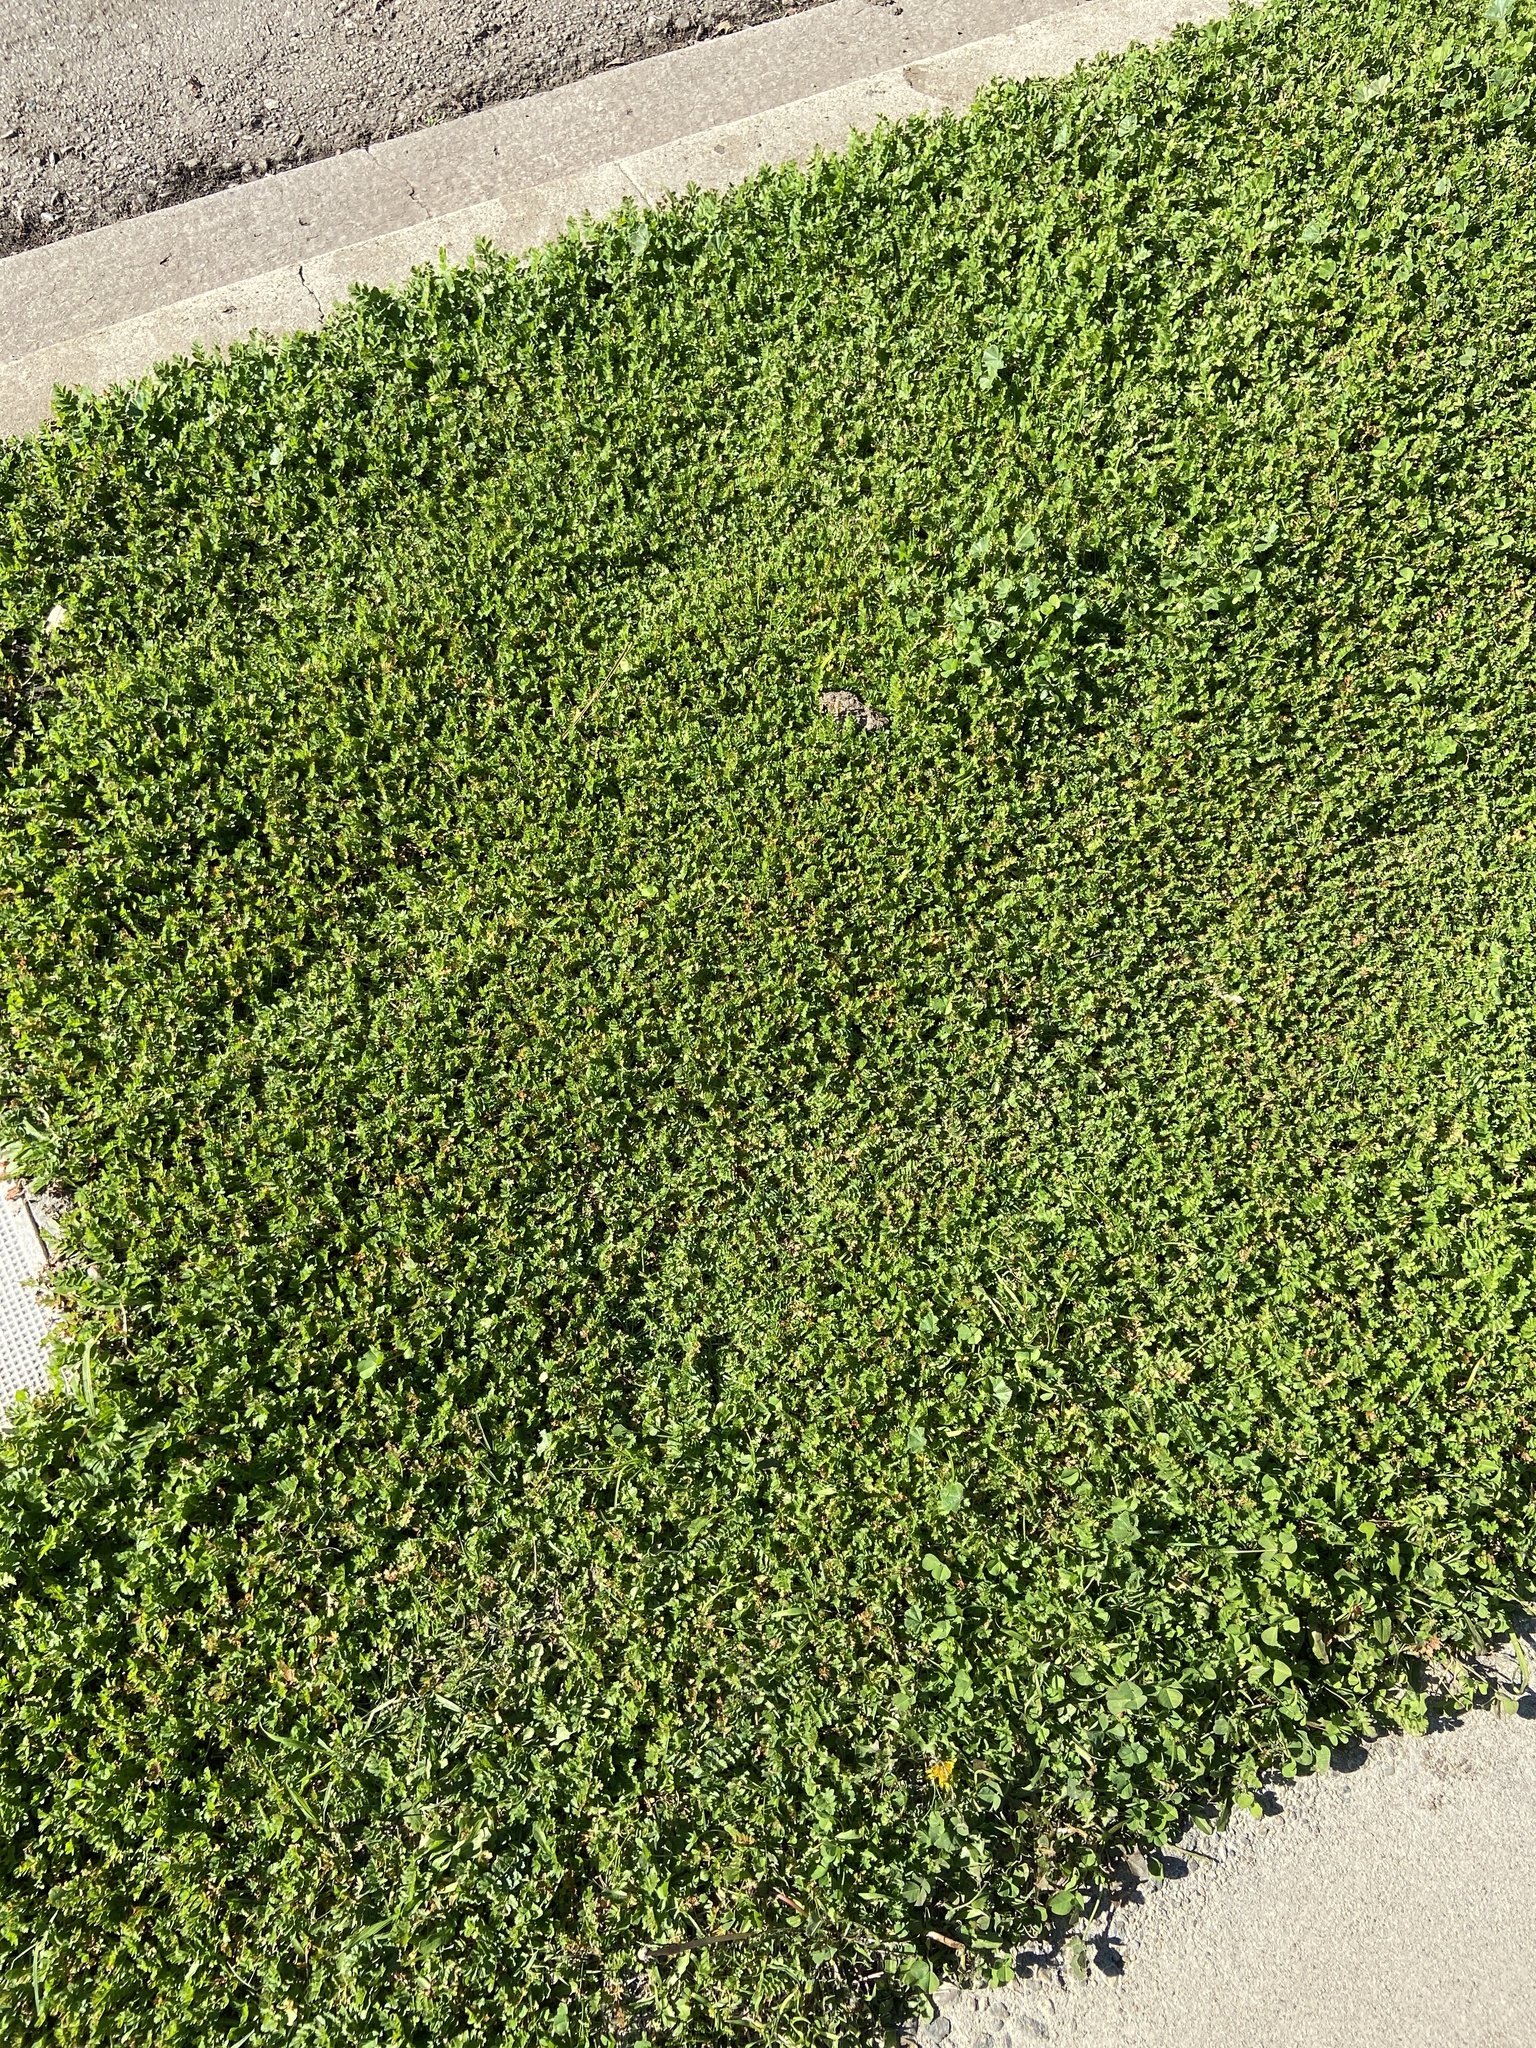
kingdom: Plantae
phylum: Tracheophyta
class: Magnoliopsida
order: Geraniales
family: Geraniaceae
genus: Erodium
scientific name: Erodium moschatum
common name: Musk stork's-bill
